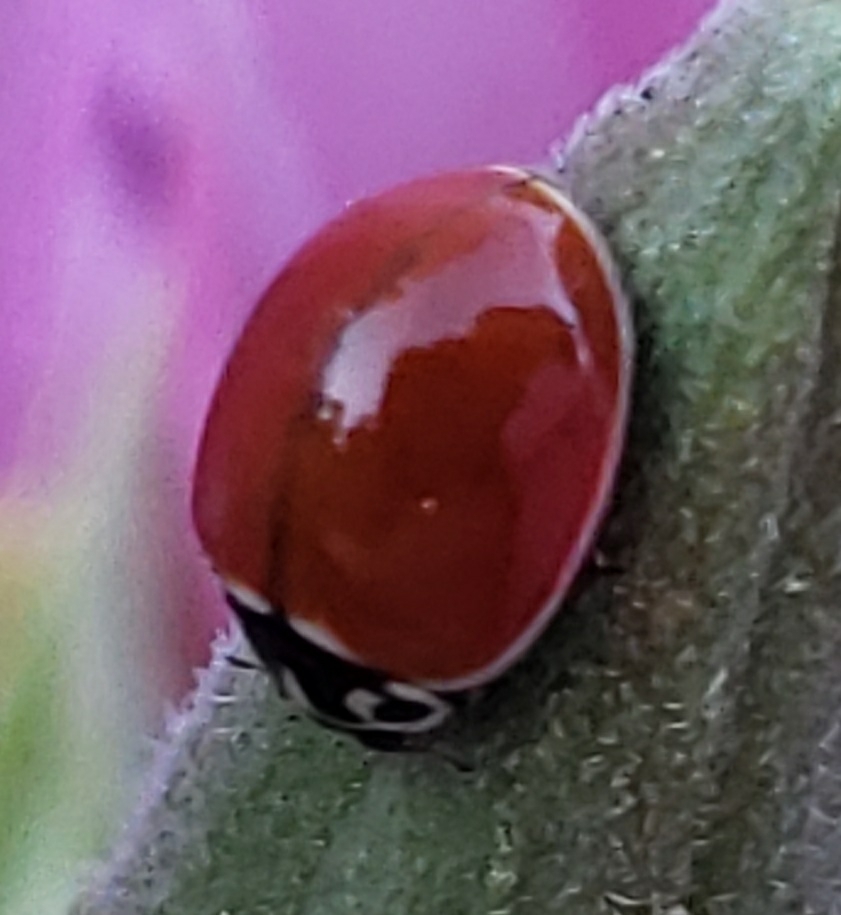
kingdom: Animalia
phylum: Arthropoda
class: Insecta
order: Coleoptera
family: Coccinellidae
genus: Cycloneda
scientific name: Cycloneda polita
